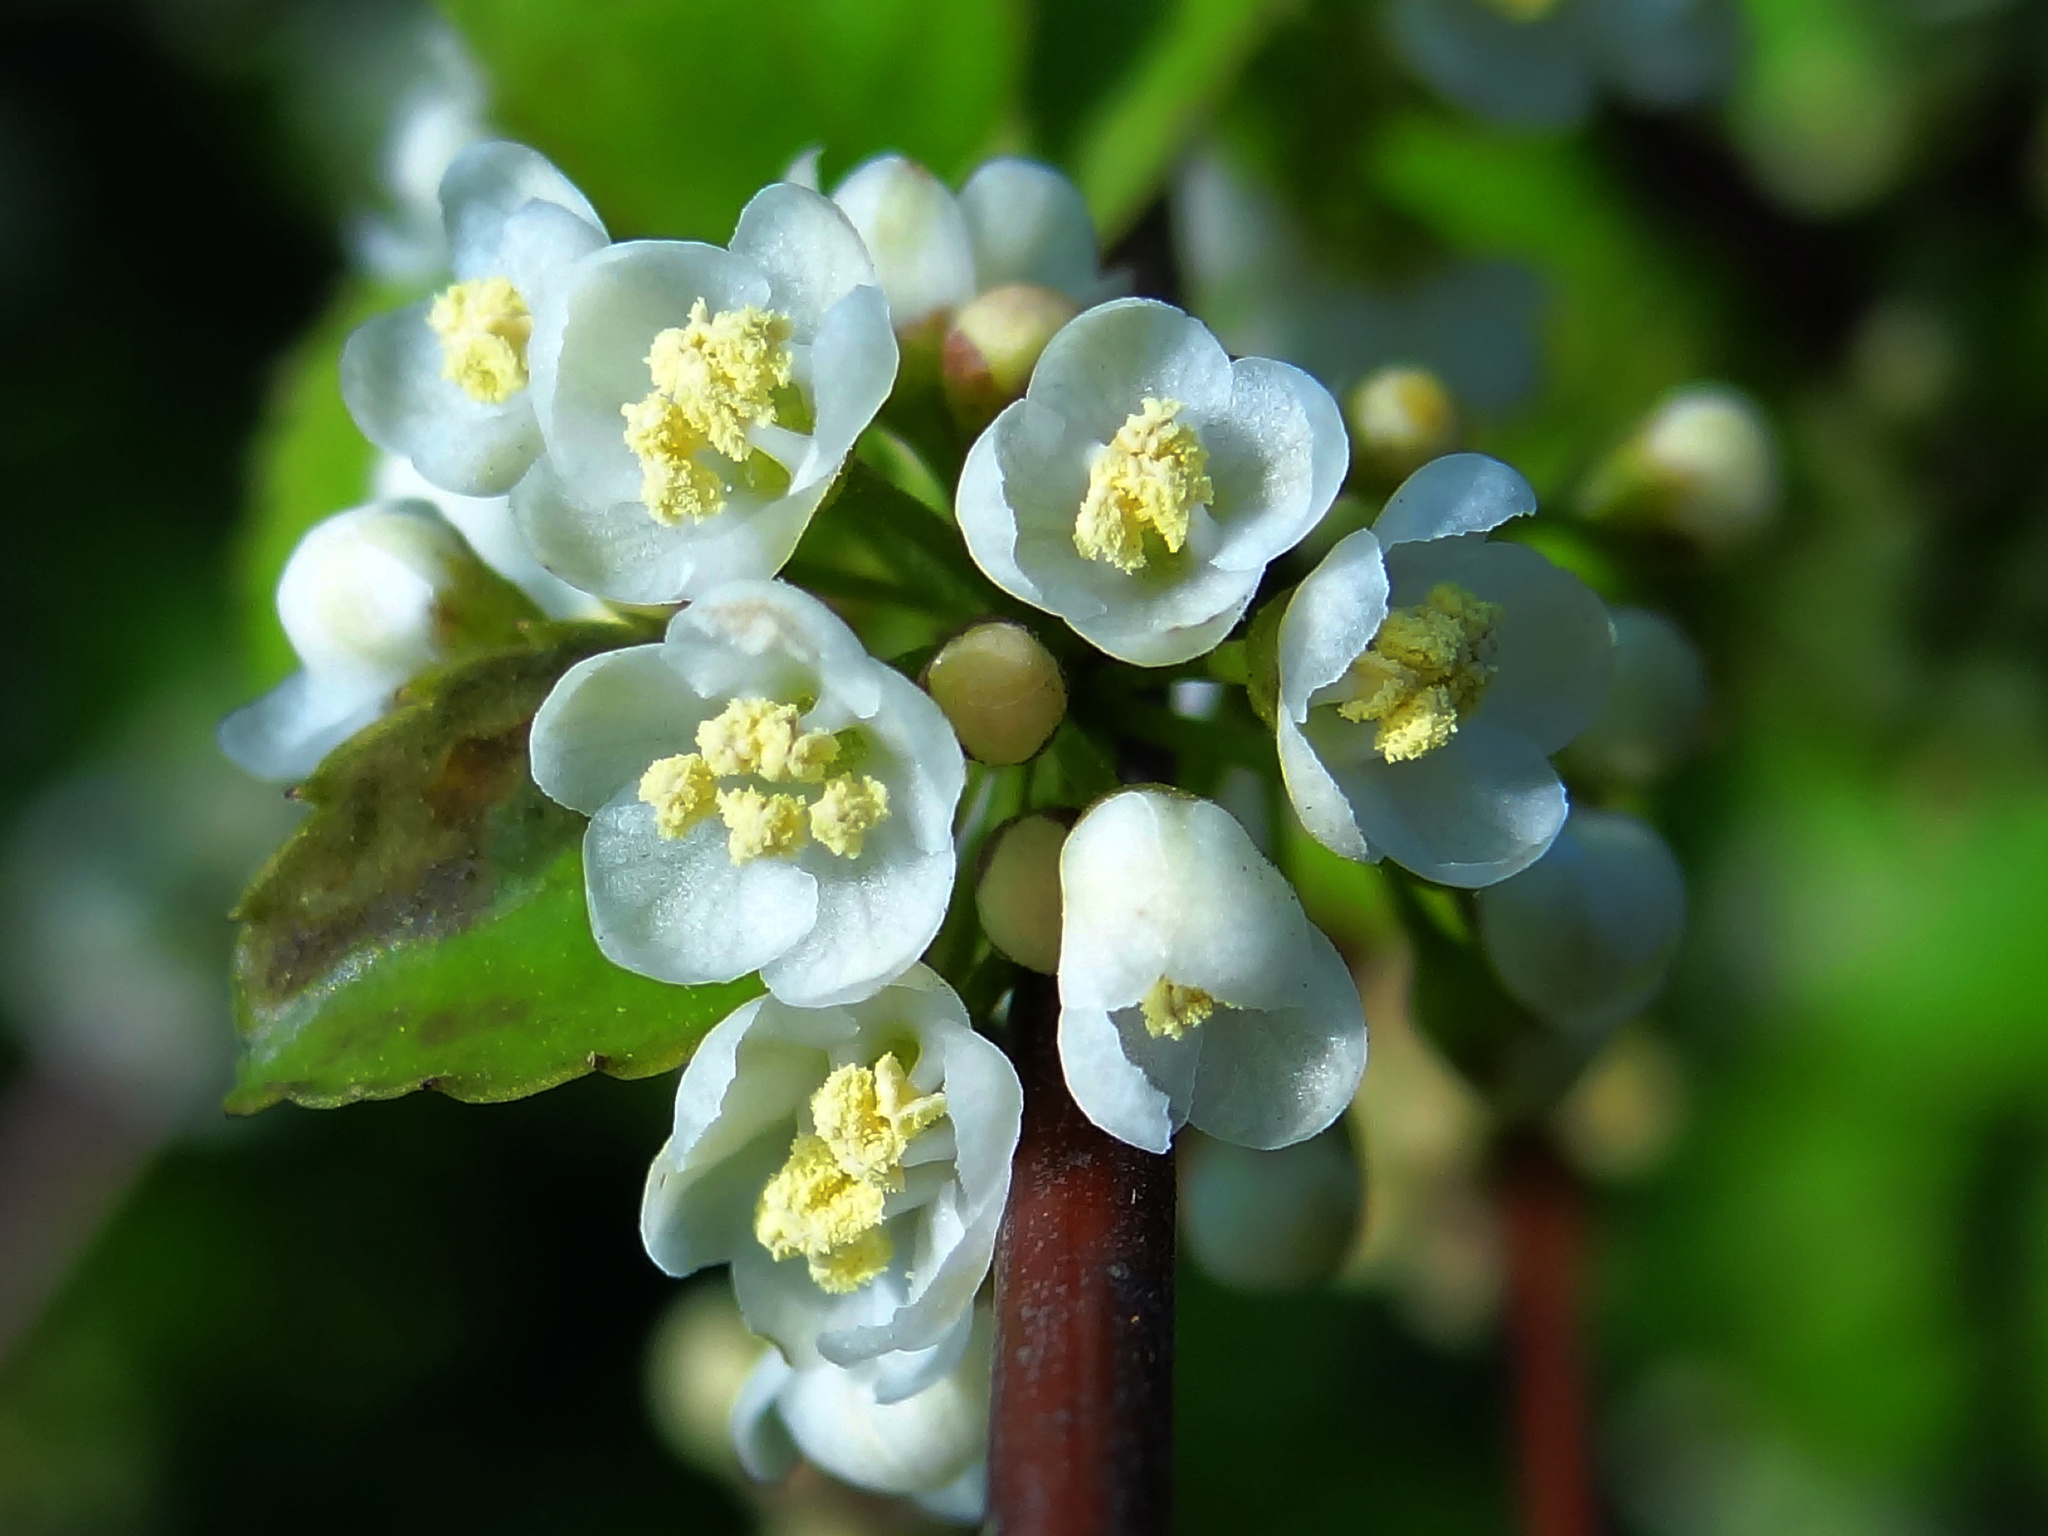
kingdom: Plantae
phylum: Tracheophyta
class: Magnoliopsida
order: Aquifoliales
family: Aquifoliaceae
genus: Ilex
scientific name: Ilex asprella
